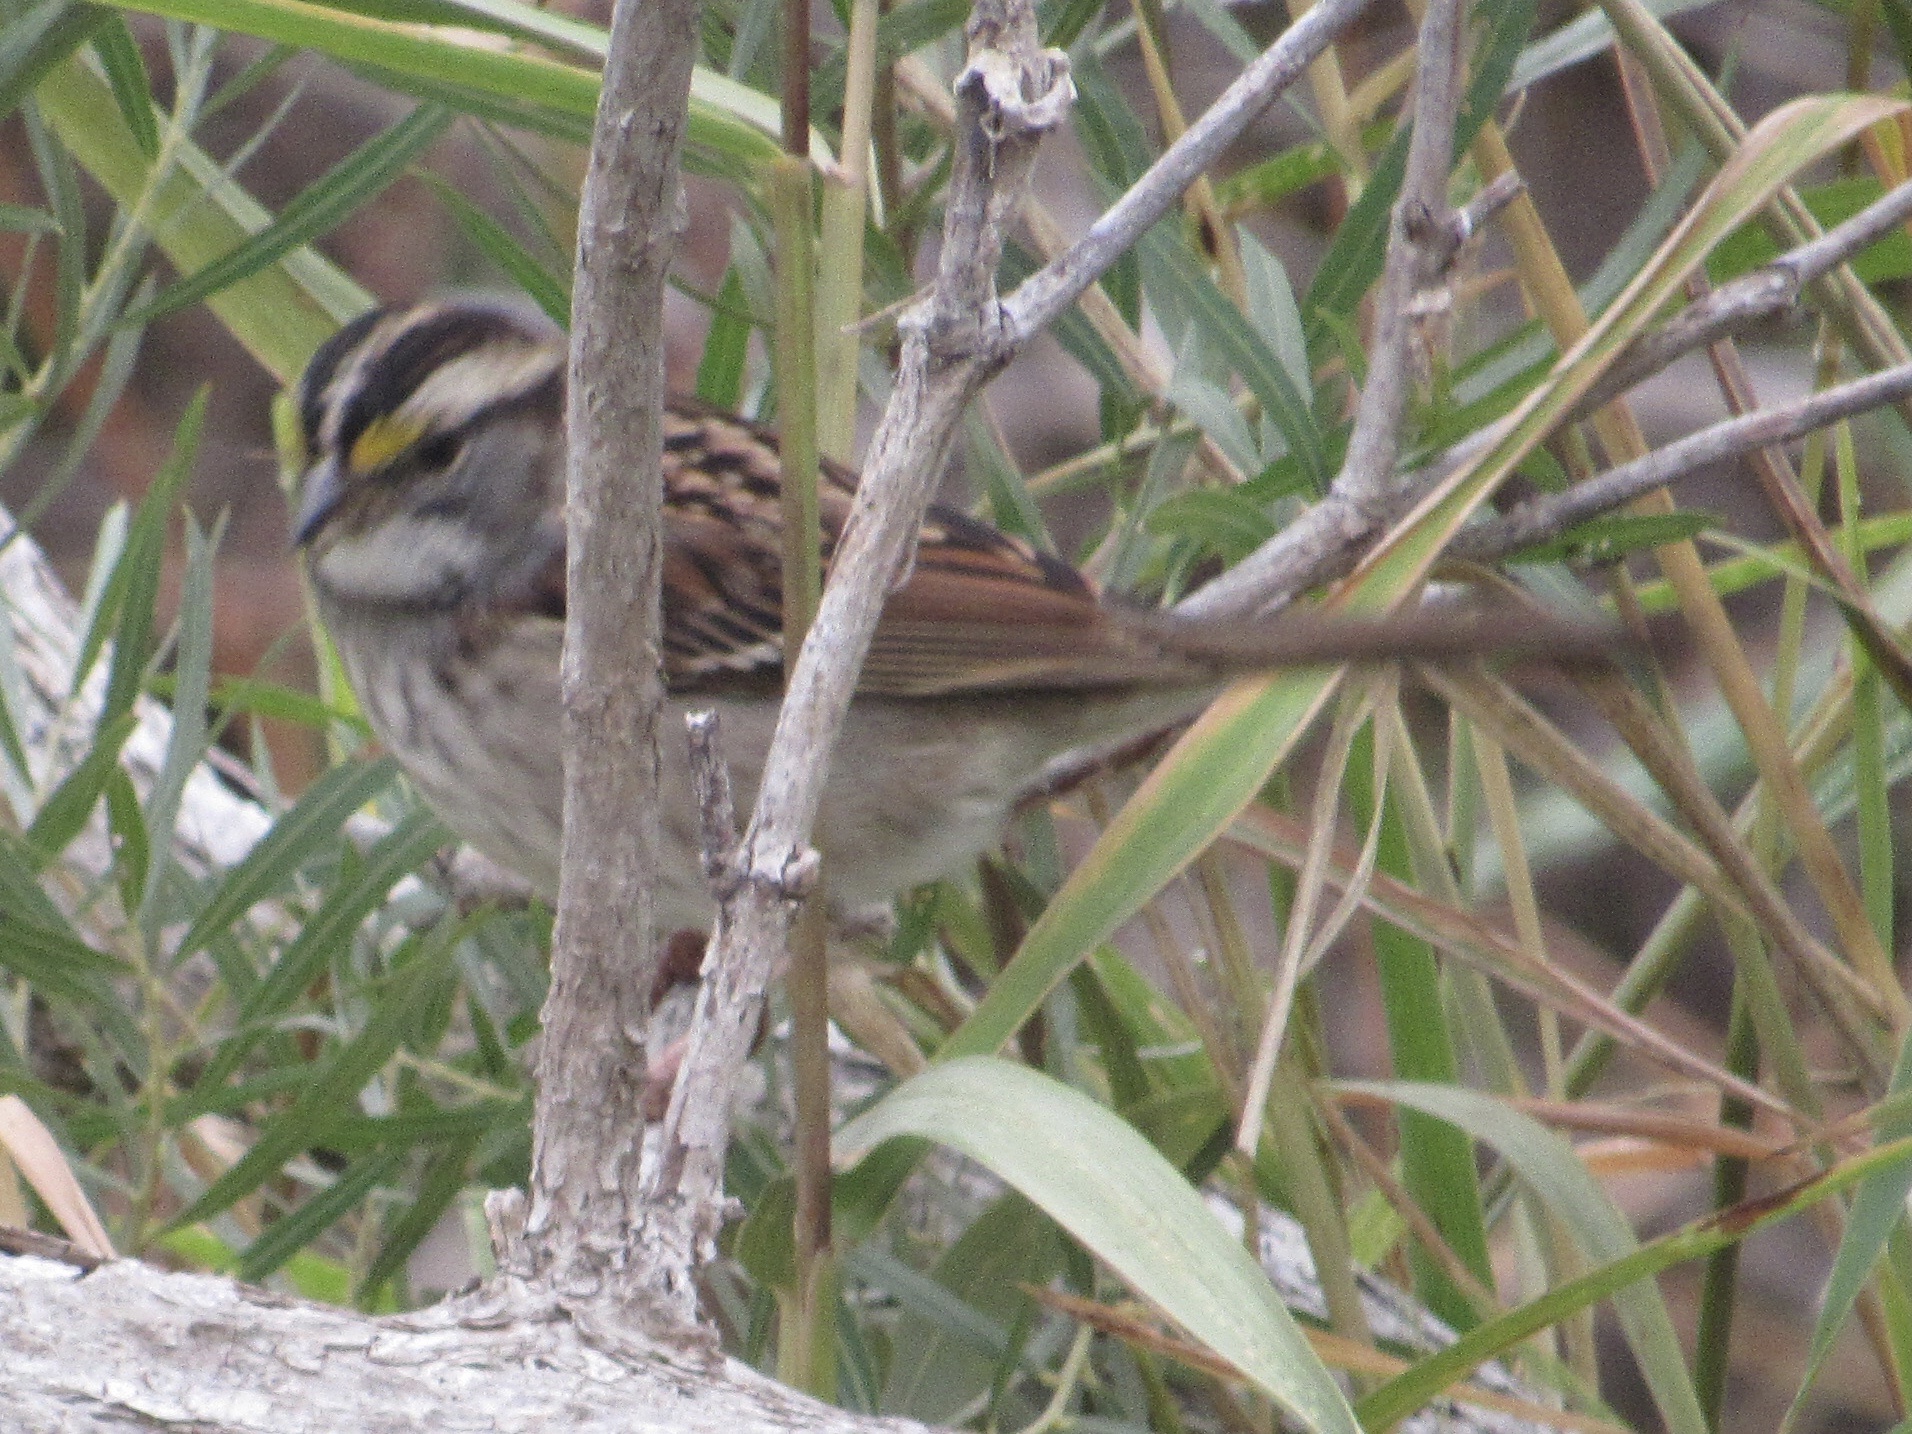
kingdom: Animalia
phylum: Chordata
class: Aves
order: Passeriformes
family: Passerellidae
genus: Zonotrichia
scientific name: Zonotrichia albicollis
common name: White-throated sparrow
